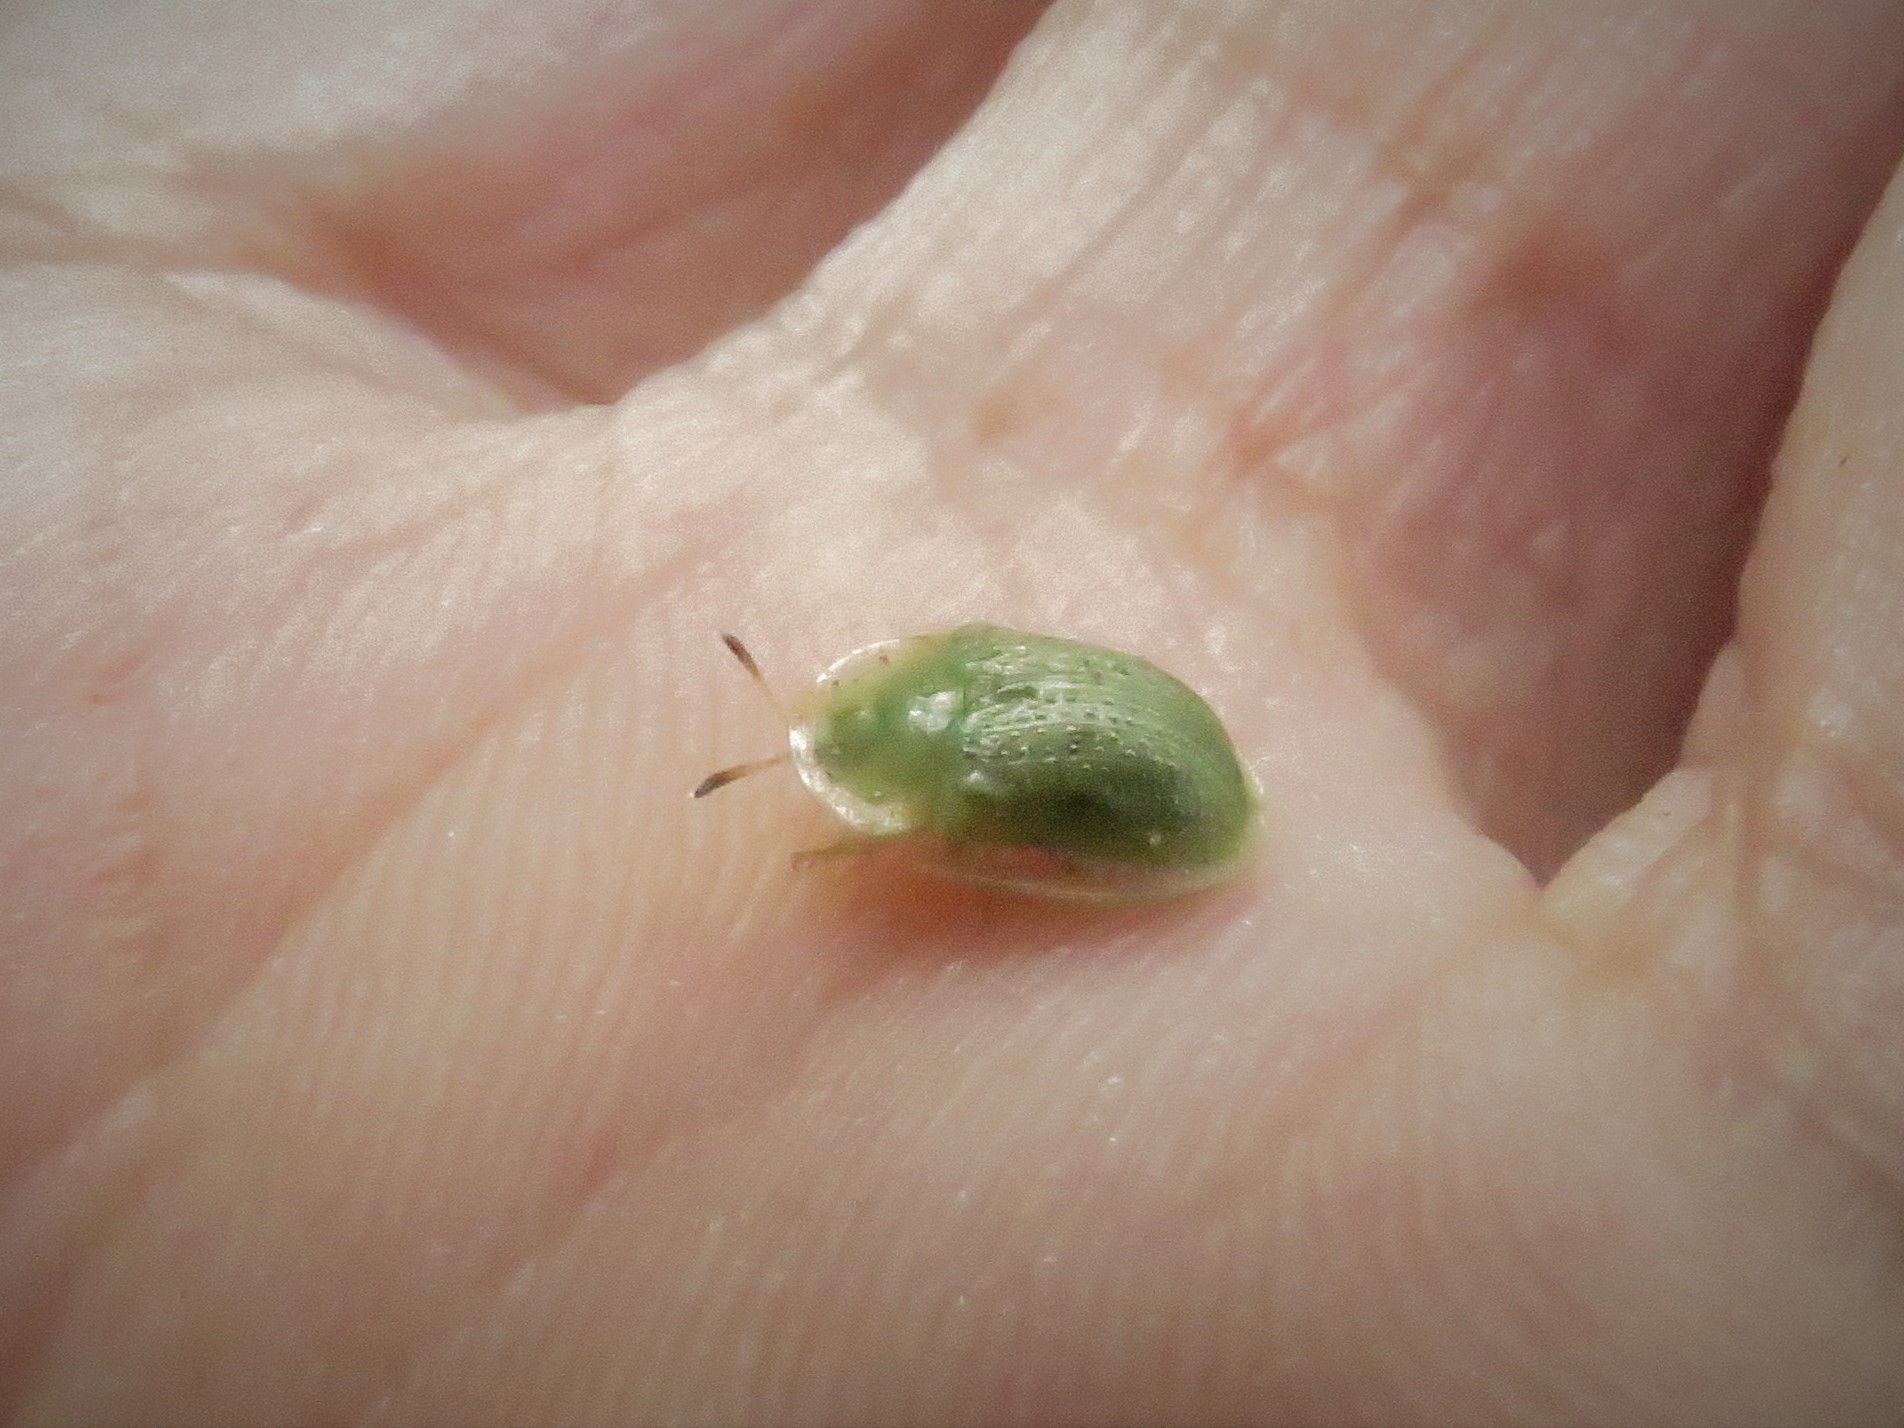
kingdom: Animalia
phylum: Arthropoda
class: Insecta
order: Coleoptera
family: Chrysomelidae
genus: Gratiana
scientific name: Gratiana pallidula
